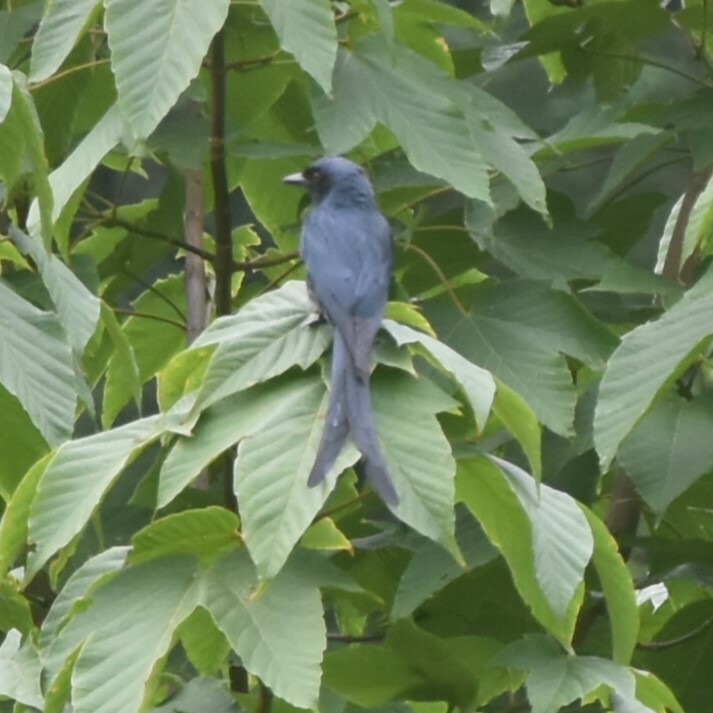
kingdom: Animalia
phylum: Chordata
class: Aves
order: Passeriformes
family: Dicruridae
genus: Dicrurus
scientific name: Dicrurus leucophaeus
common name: Ashy drongo
